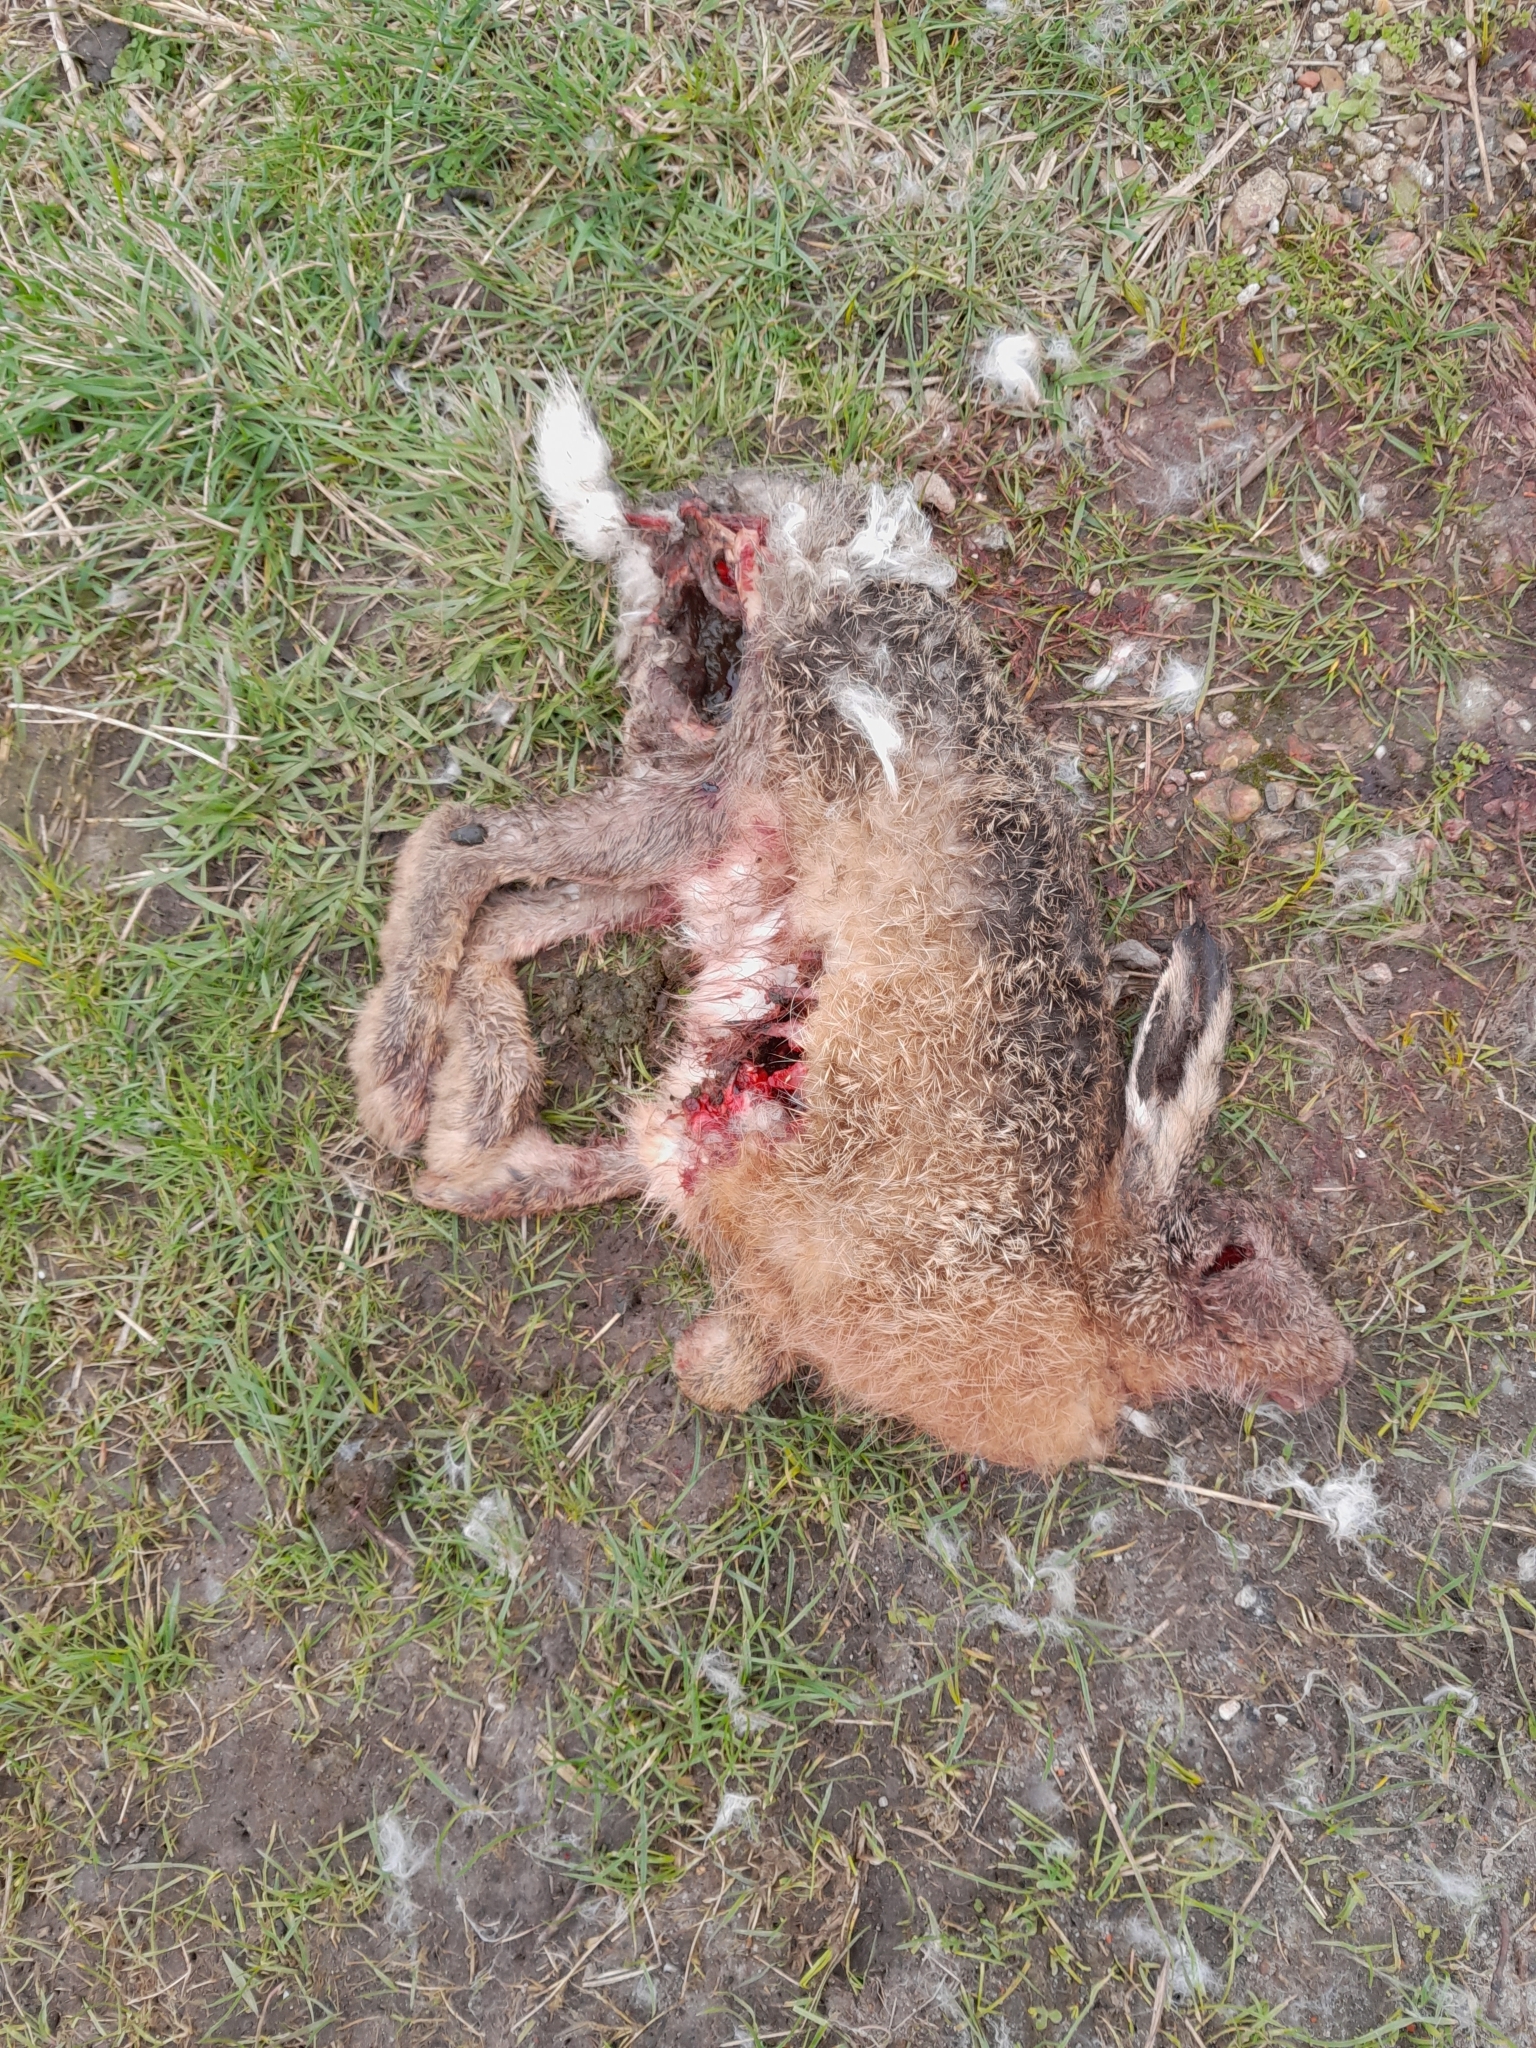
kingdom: Animalia
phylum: Chordata
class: Mammalia
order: Lagomorpha
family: Leporidae
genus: Lepus
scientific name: Lepus europaeus
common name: European hare
